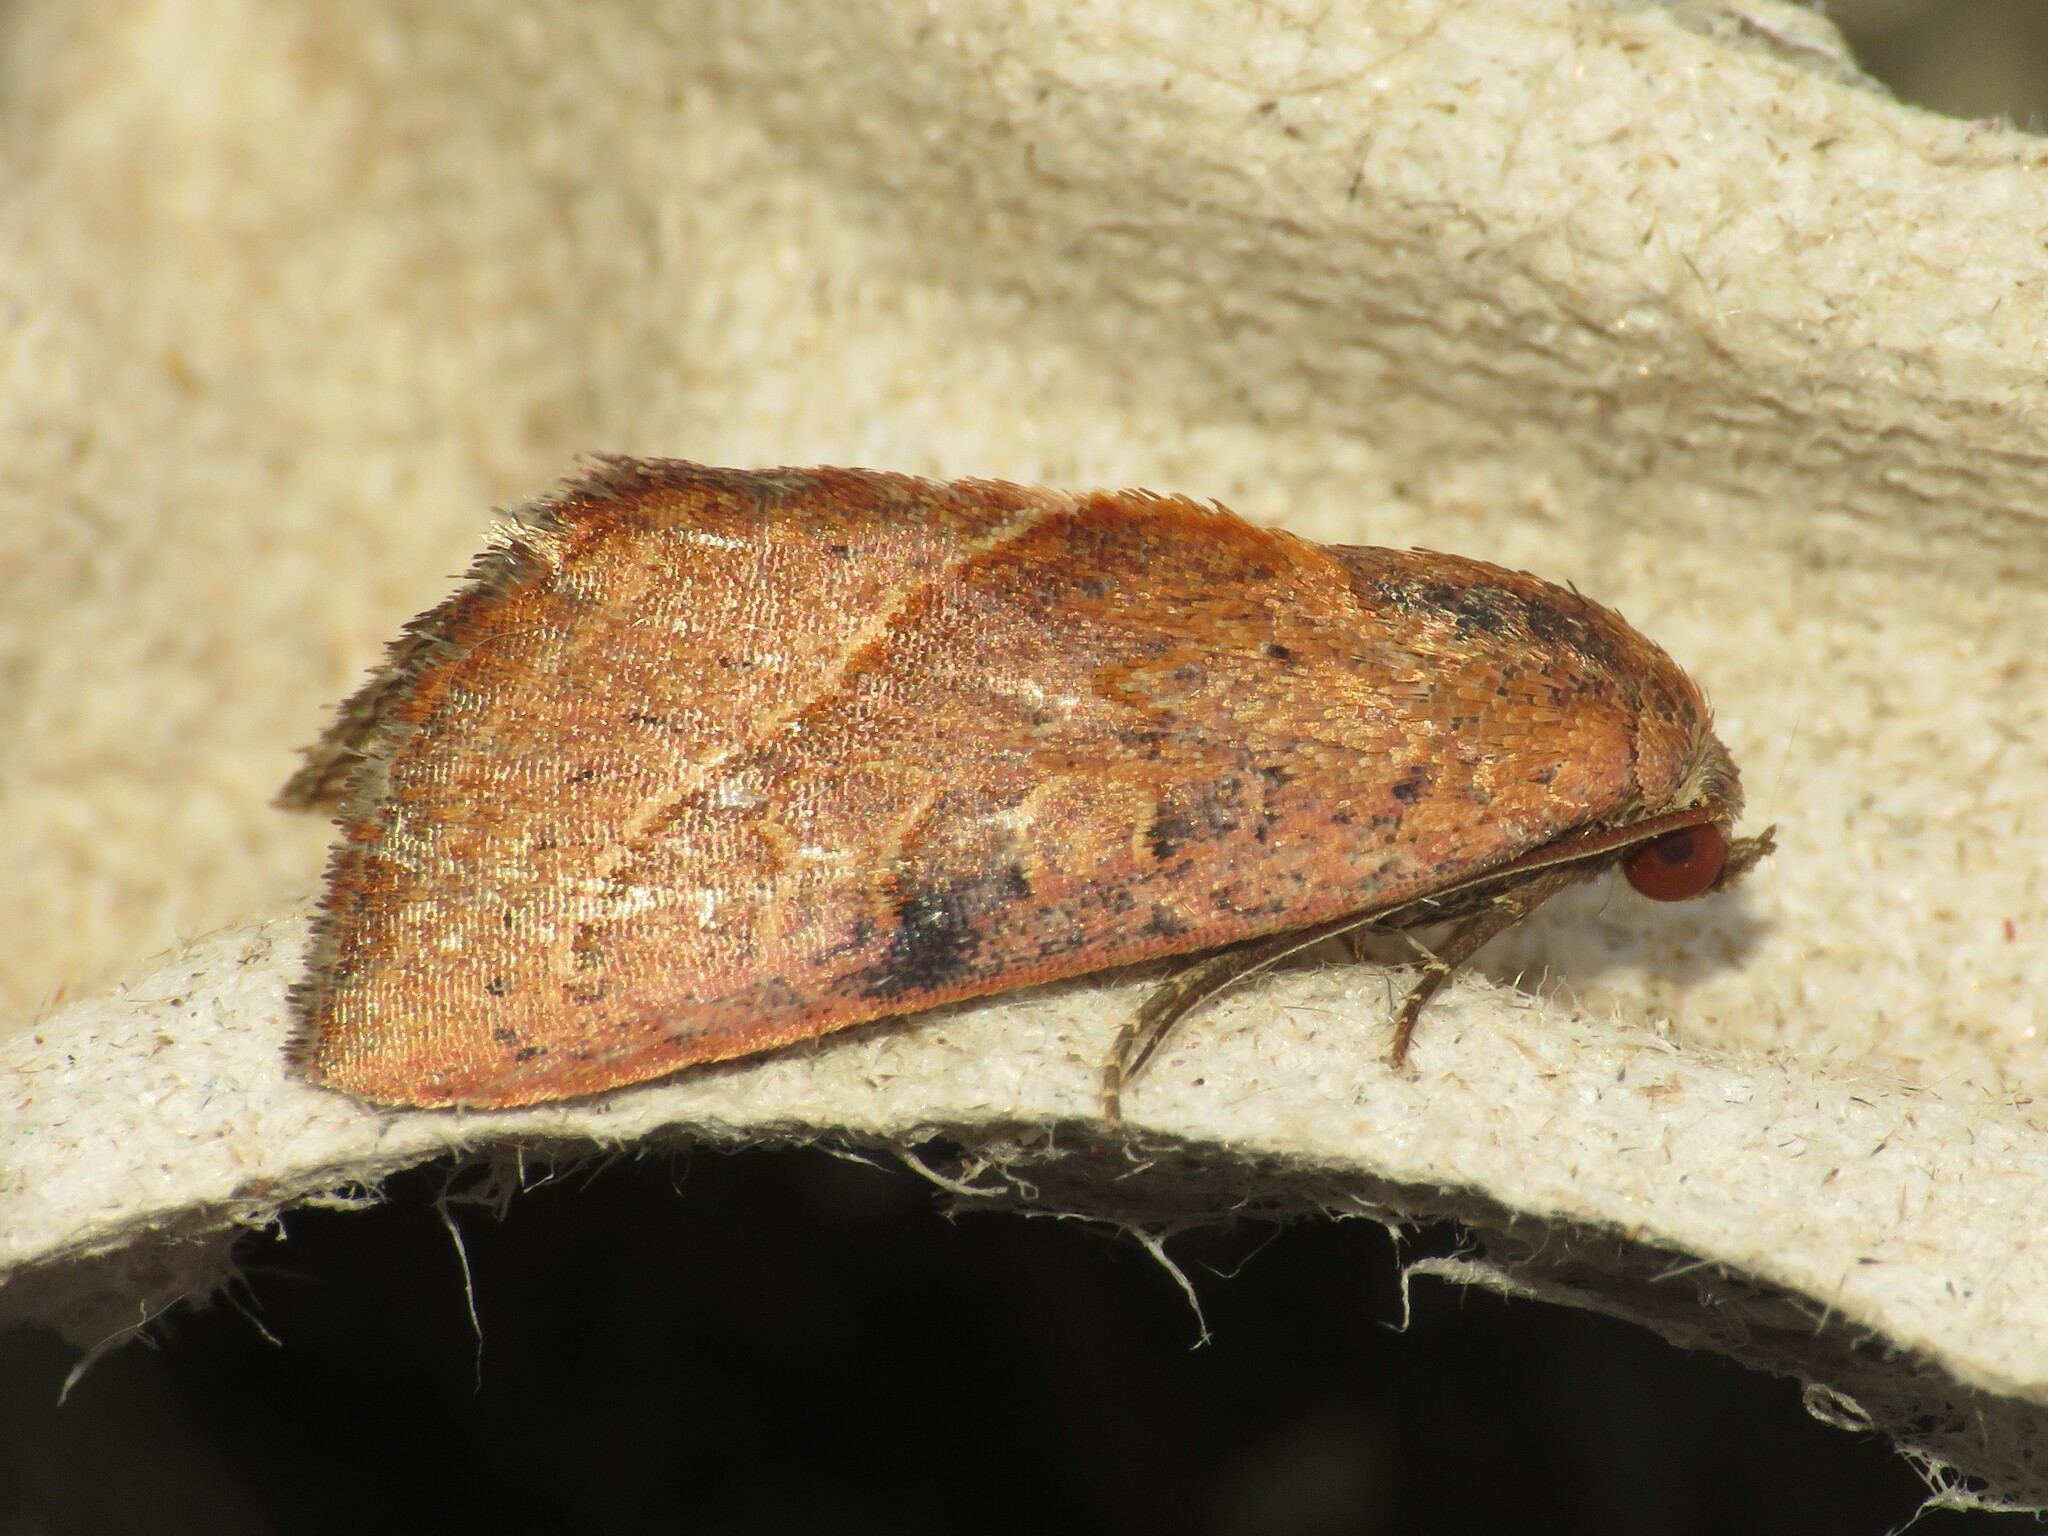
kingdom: Animalia
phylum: Arthropoda
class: Insecta
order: Lepidoptera
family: Noctuidae
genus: Galgula
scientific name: Galgula partita
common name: Wedgeling
